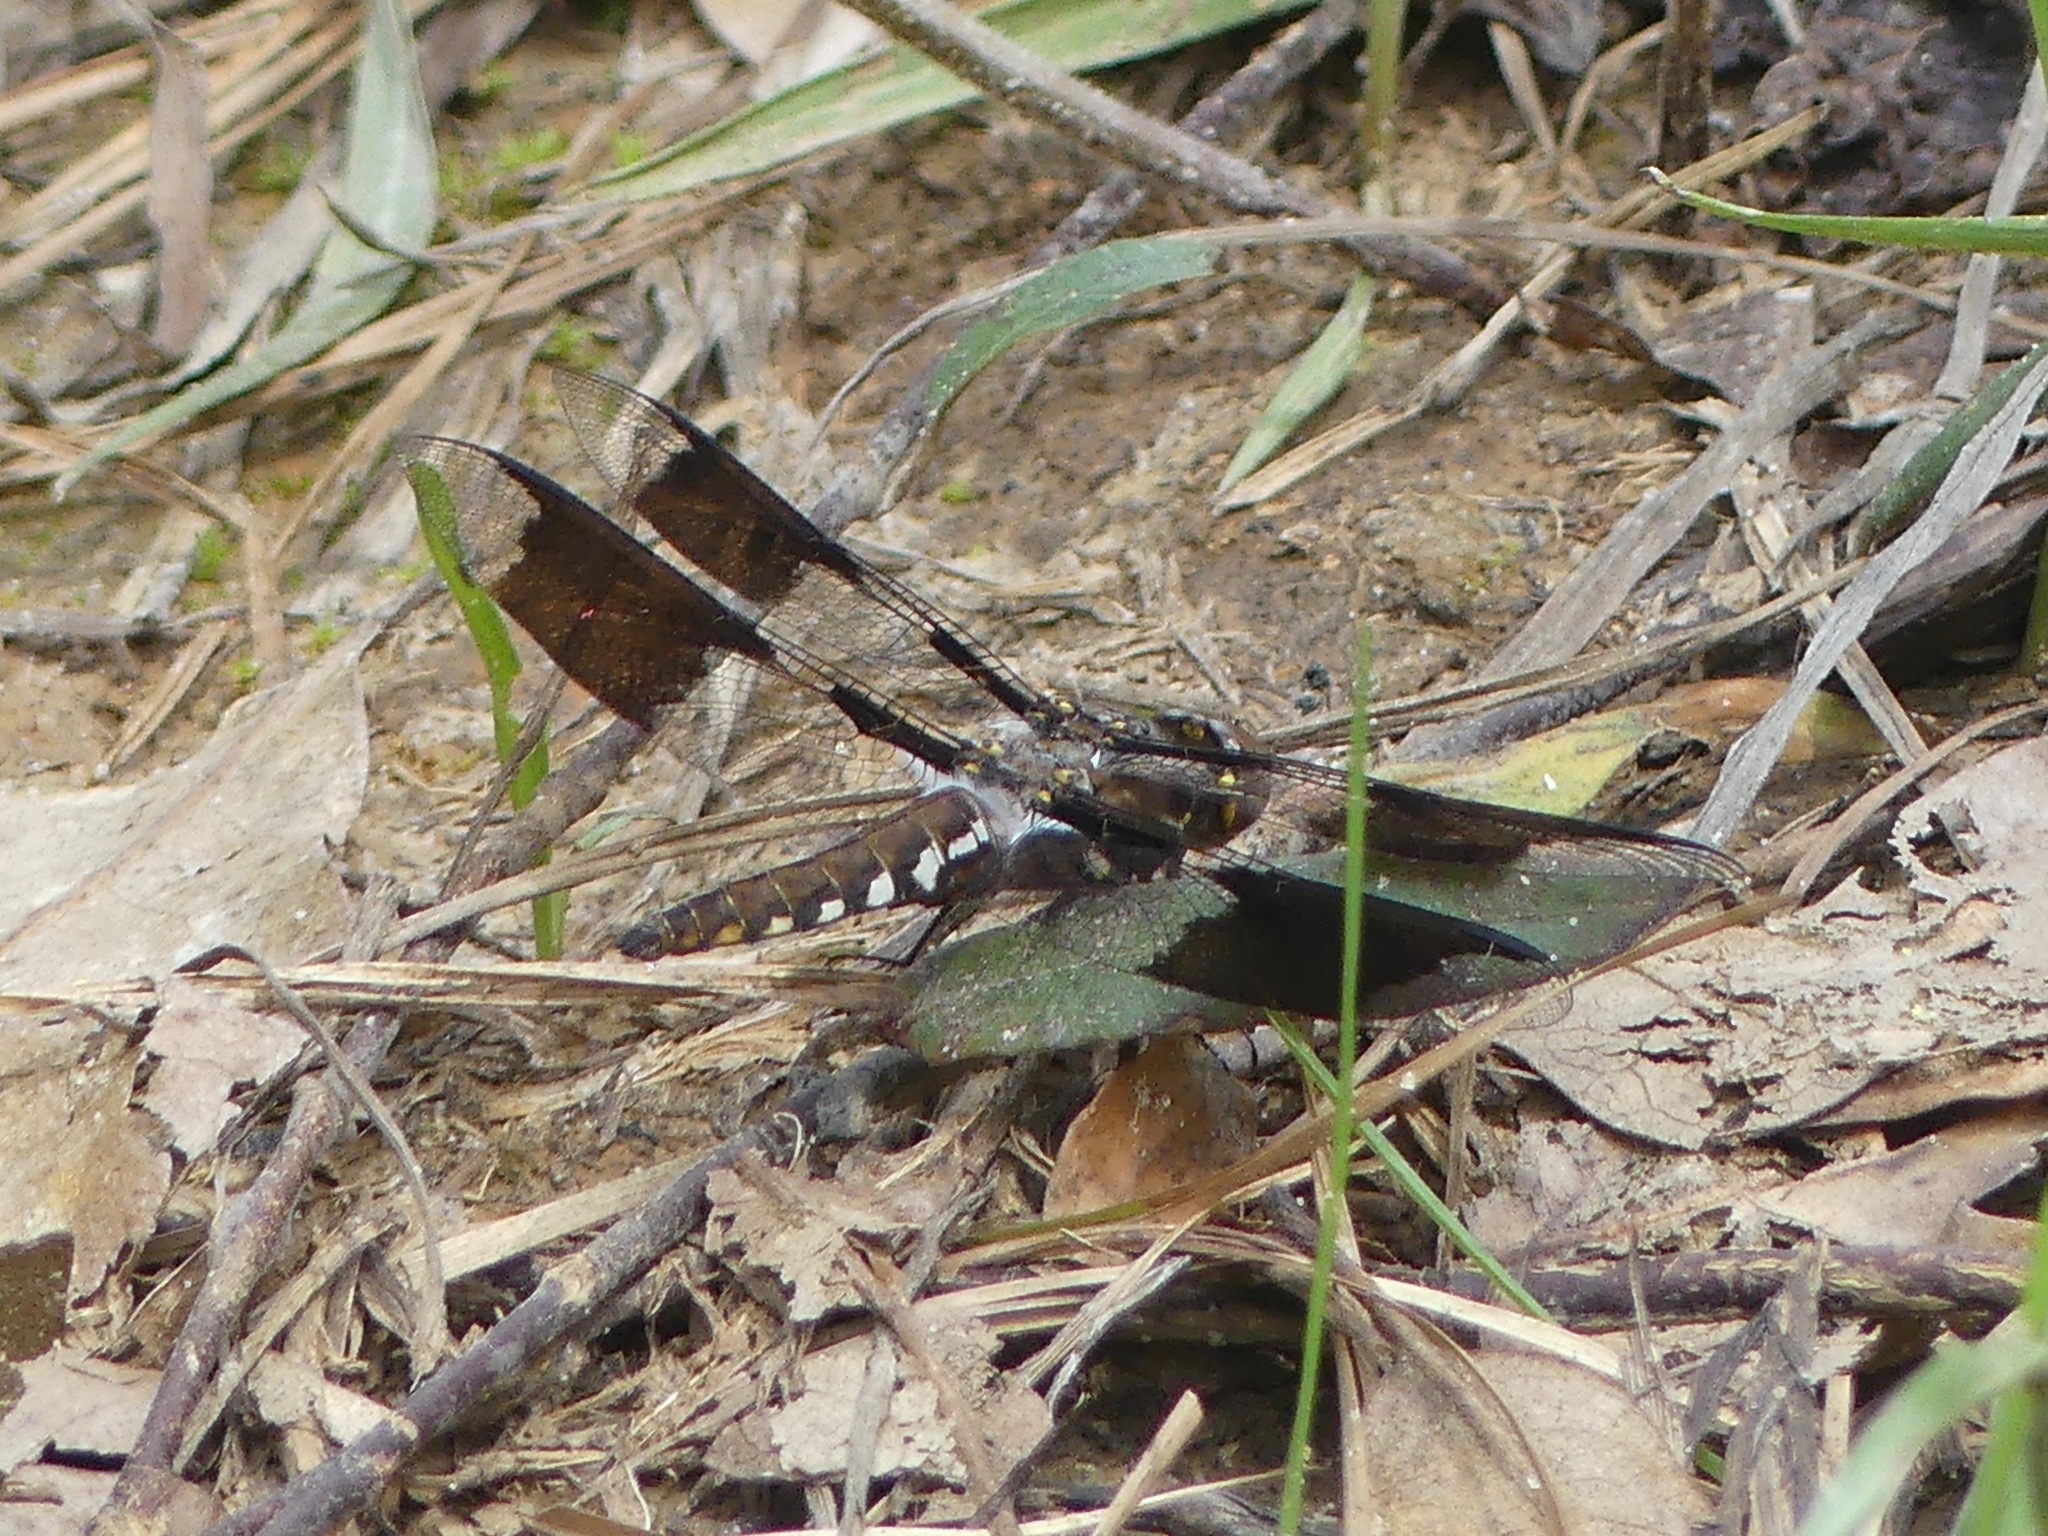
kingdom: Animalia
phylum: Arthropoda
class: Insecta
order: Odonata
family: Libellulidae
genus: Plathemis
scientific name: Plathemis lydia
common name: Common whitetail
